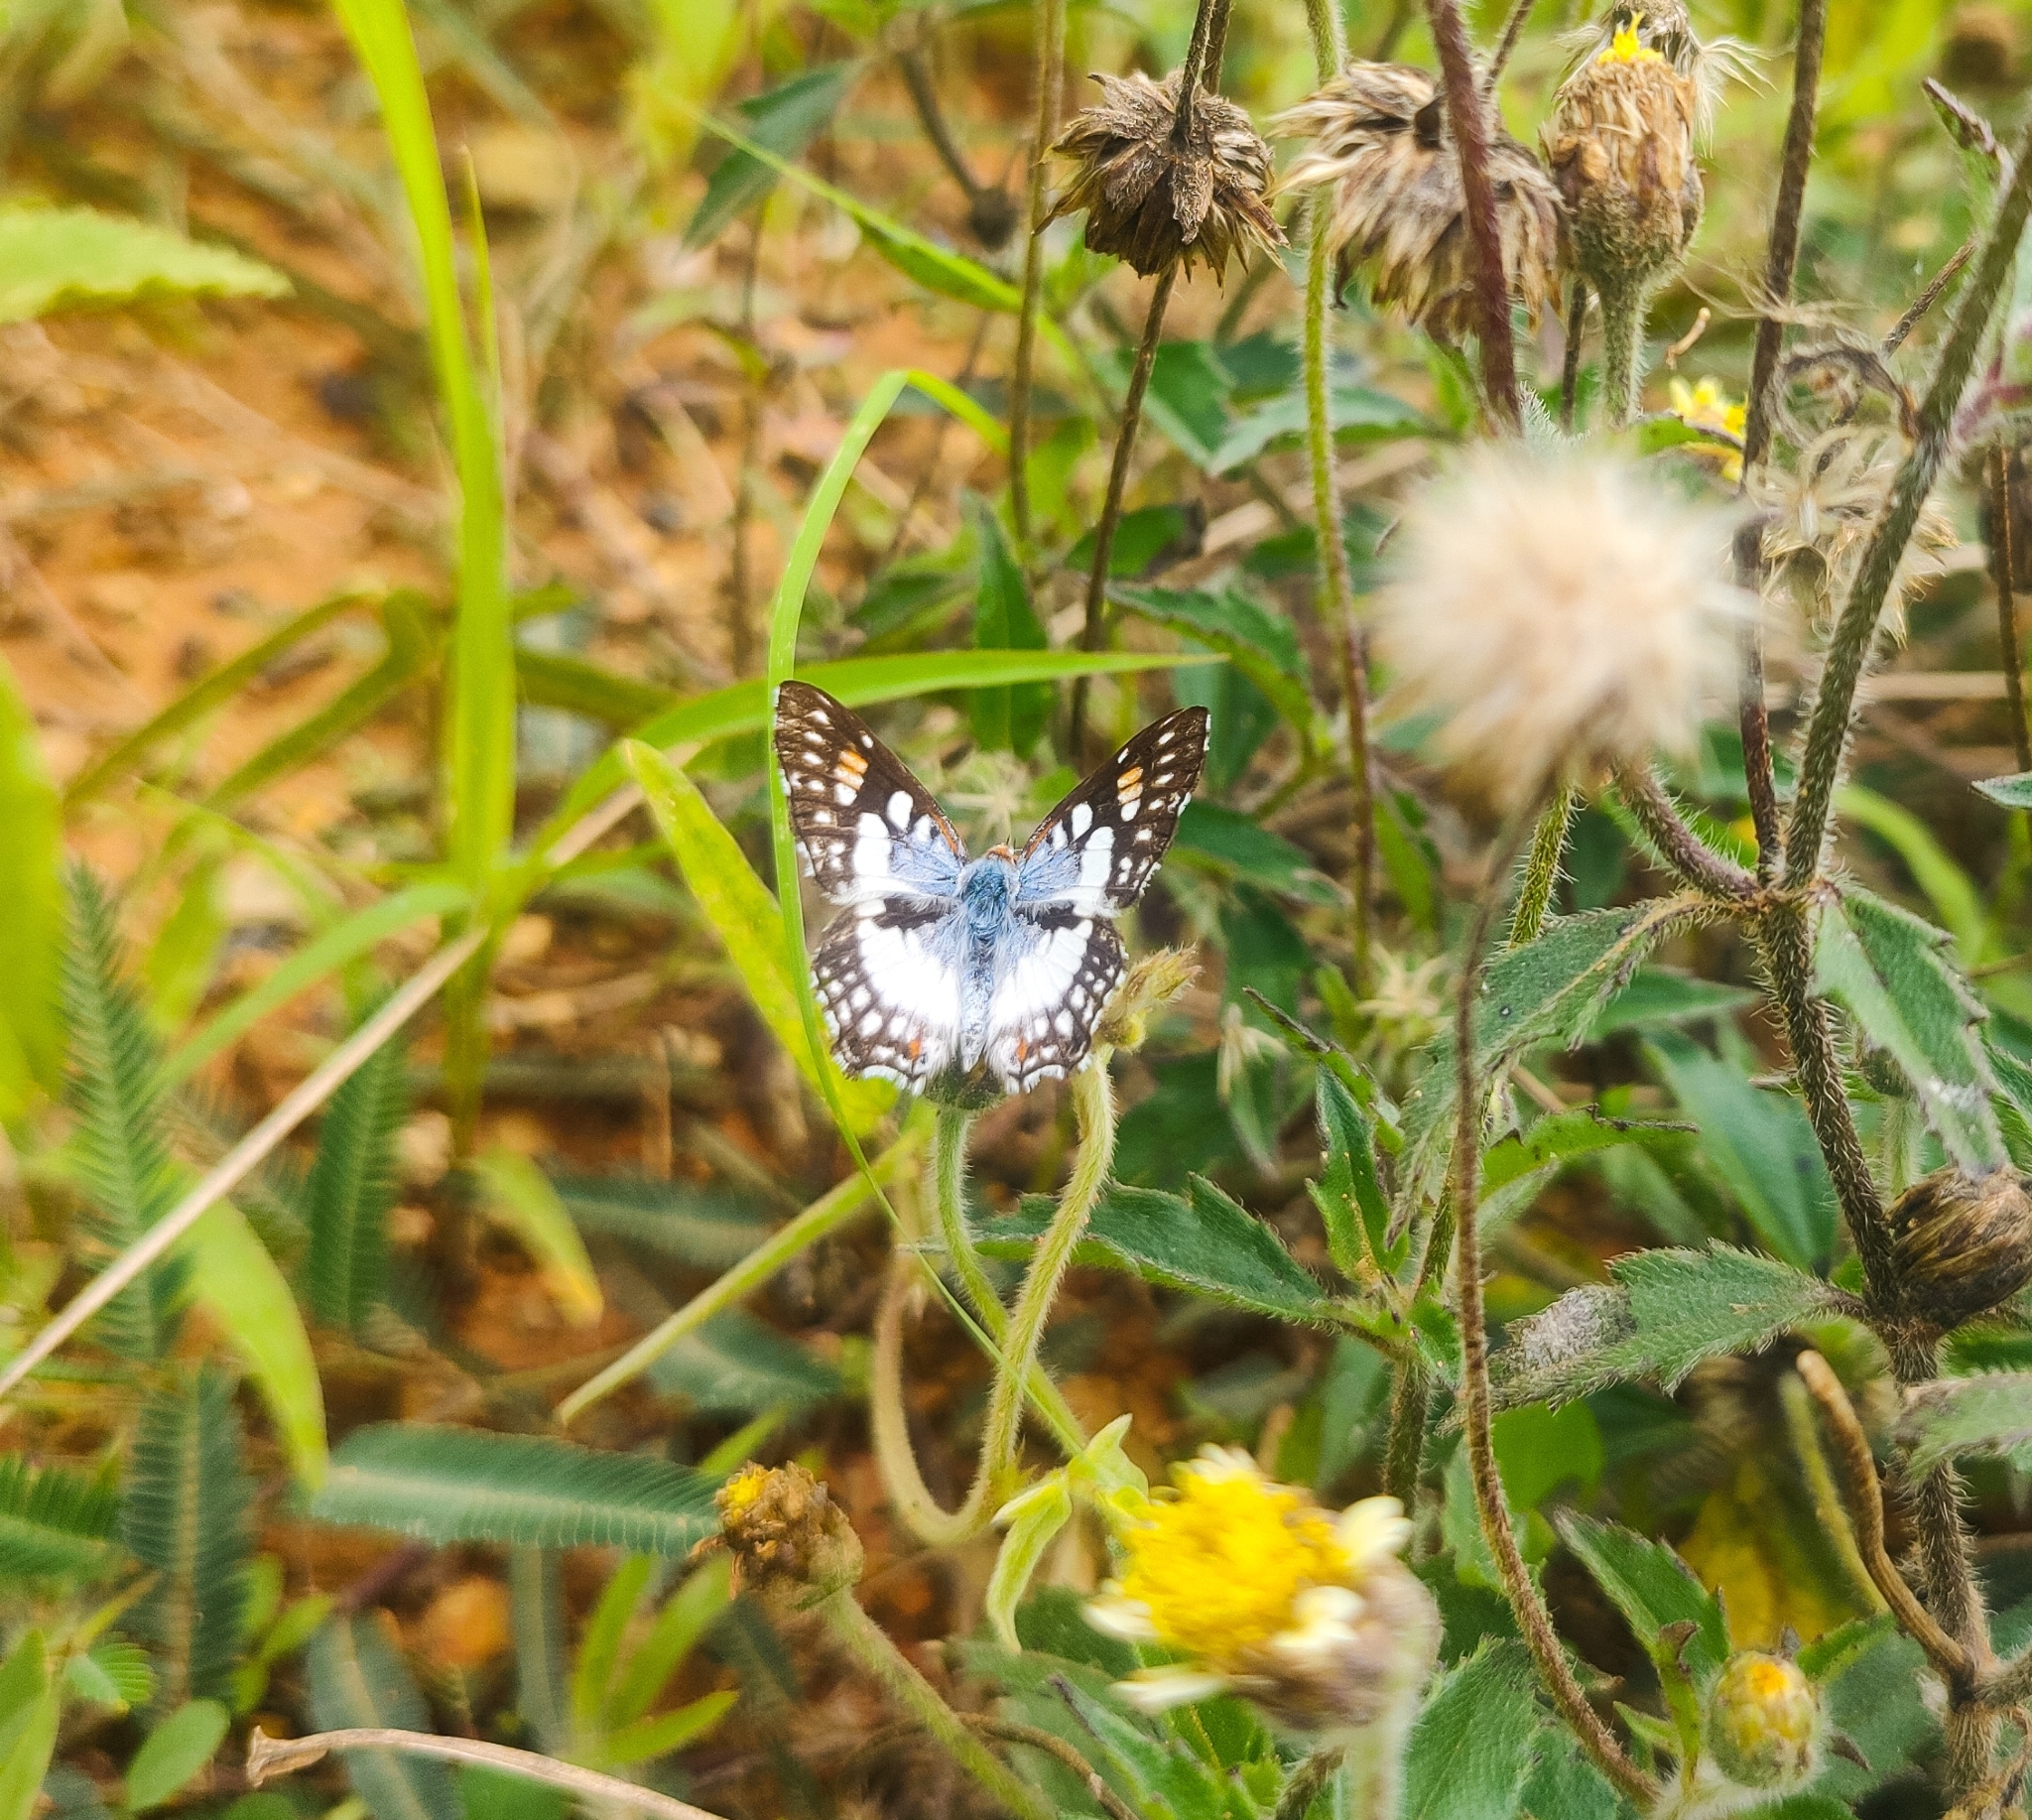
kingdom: Animalia
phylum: Arthropoda
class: Insecta
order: Lepidoptera
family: Riodinidae
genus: Ariconias
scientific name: Ariconias glaphyra
